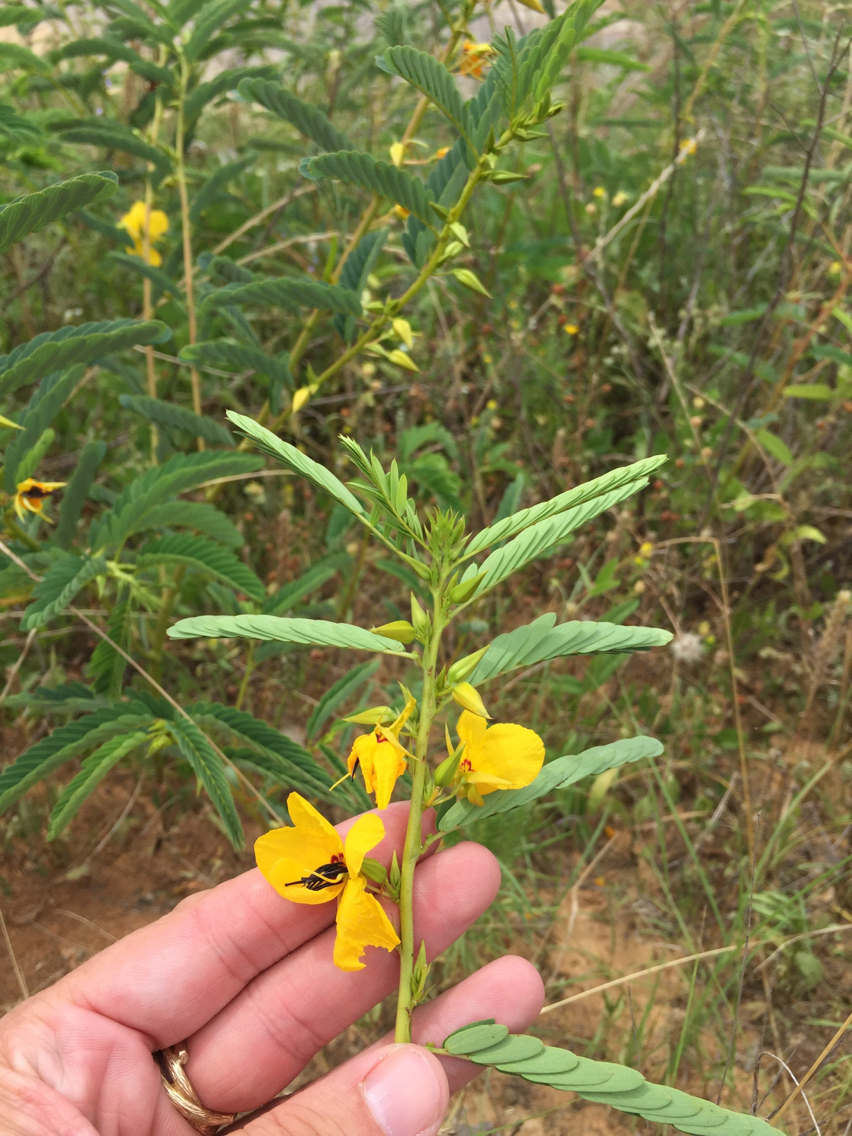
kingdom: Plantae
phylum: Tracheophyta
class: Magnoliopsida
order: Fabales
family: Fabaceae
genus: Chamaecrista
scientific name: Chamaecrista fasciculata
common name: Golden cassia
